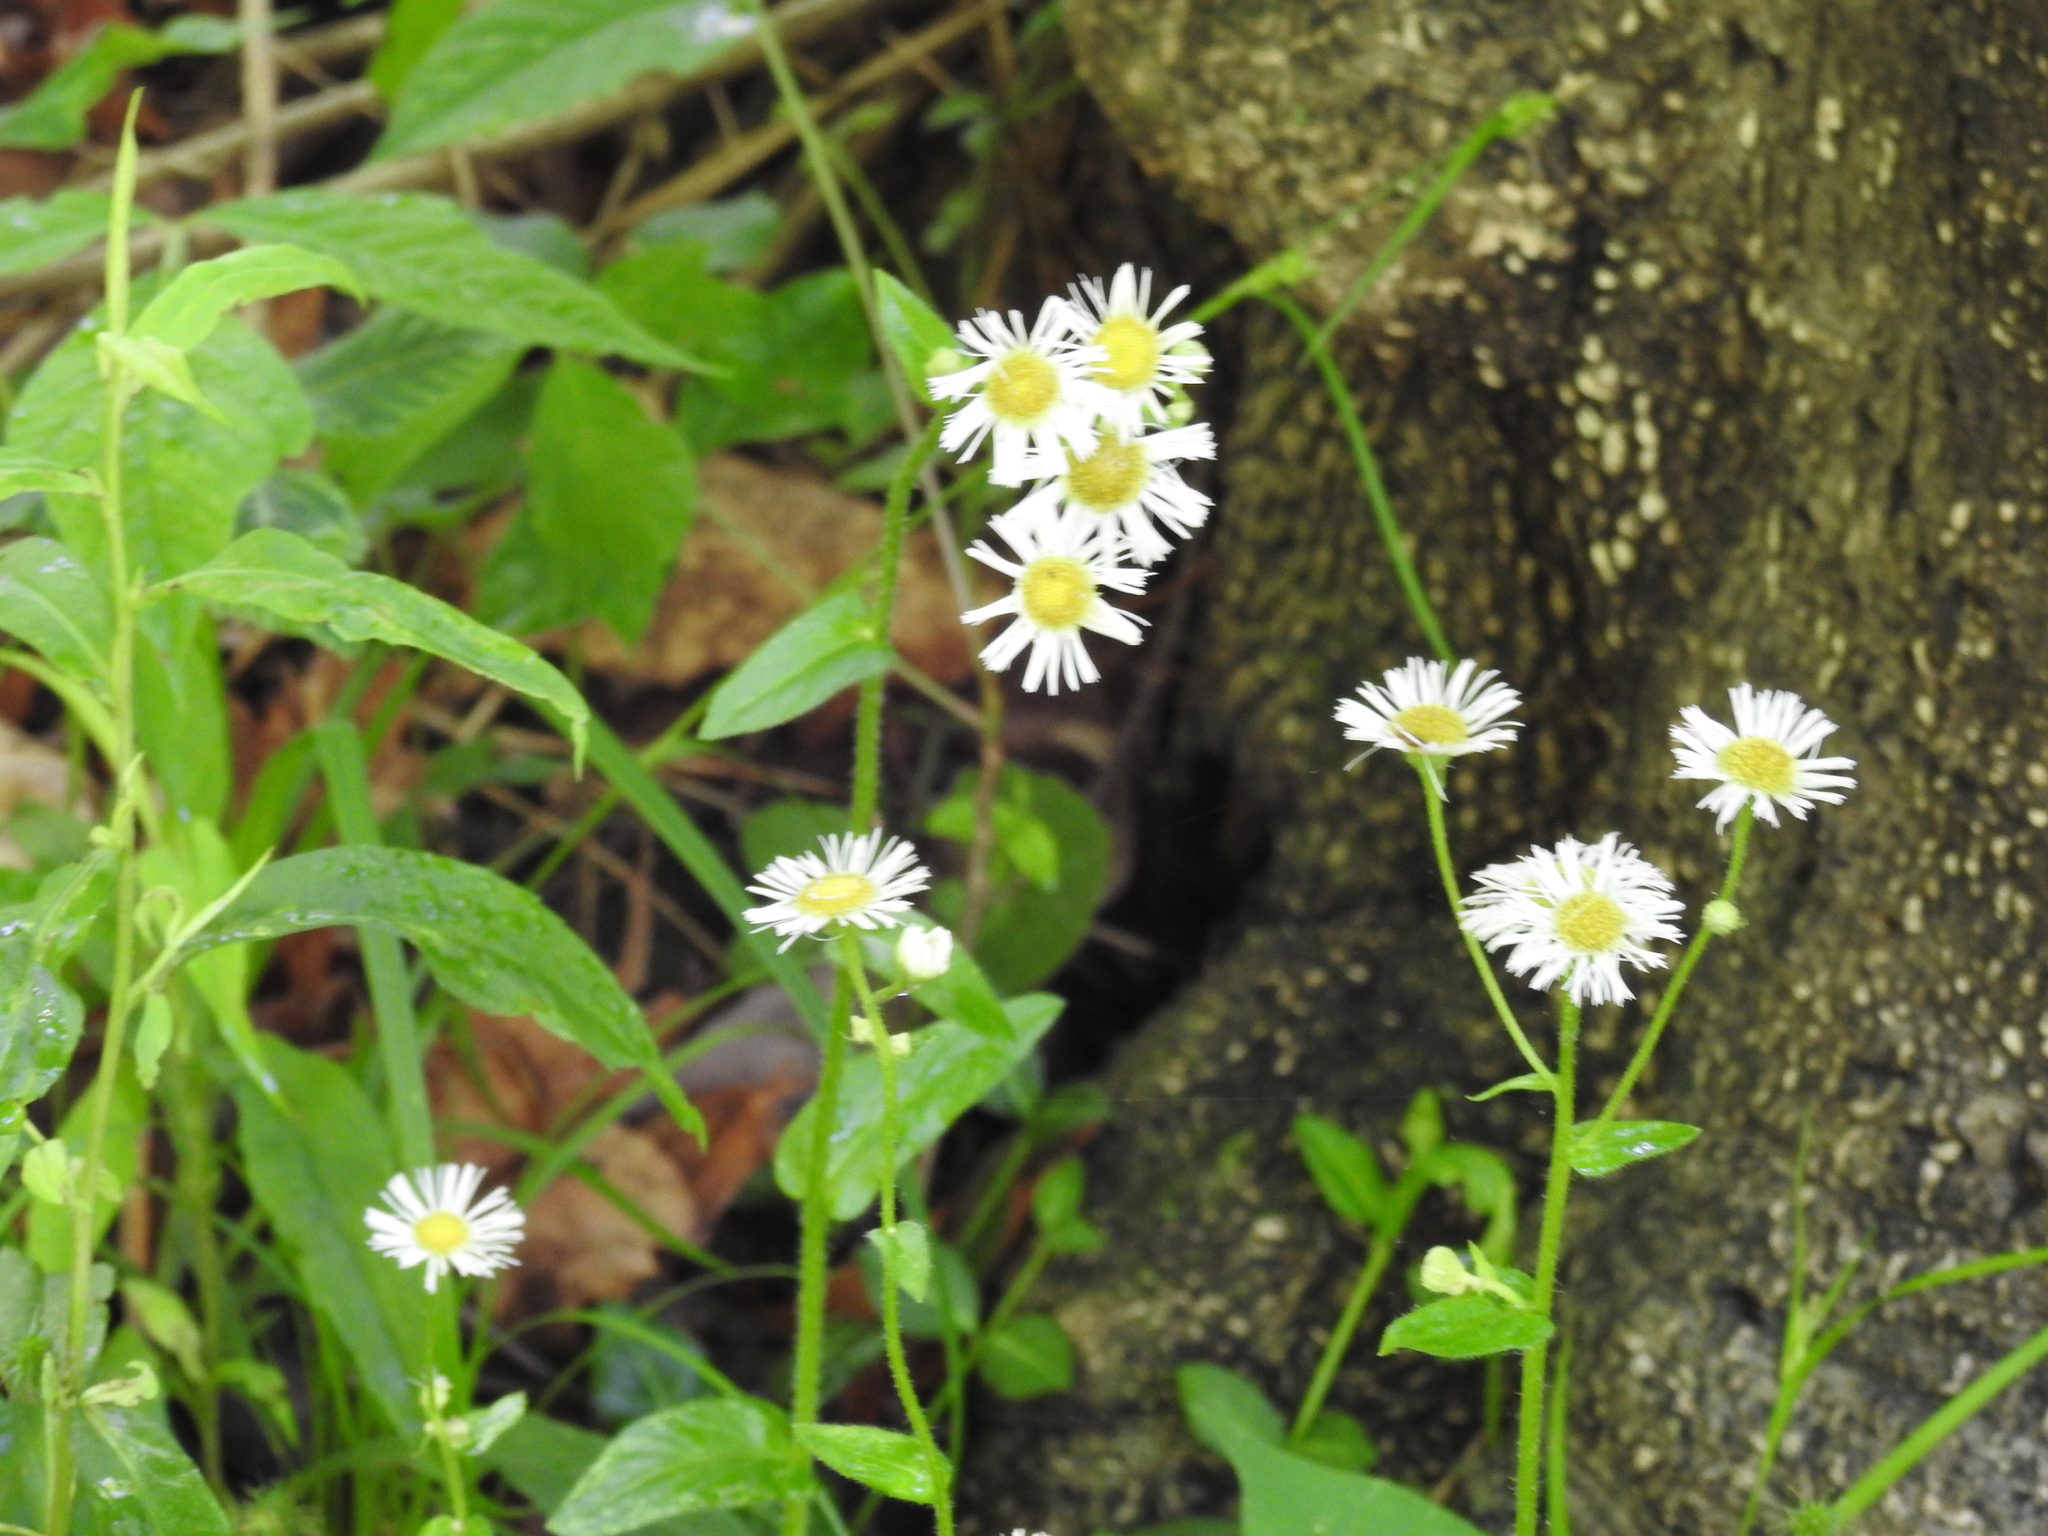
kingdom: Plantae
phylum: Tracheophyta
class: Magnoliopsida
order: Asterales
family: Asteraceae
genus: Erigeron
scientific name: Erigeron philadelphicus
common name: Robin's-plantain
